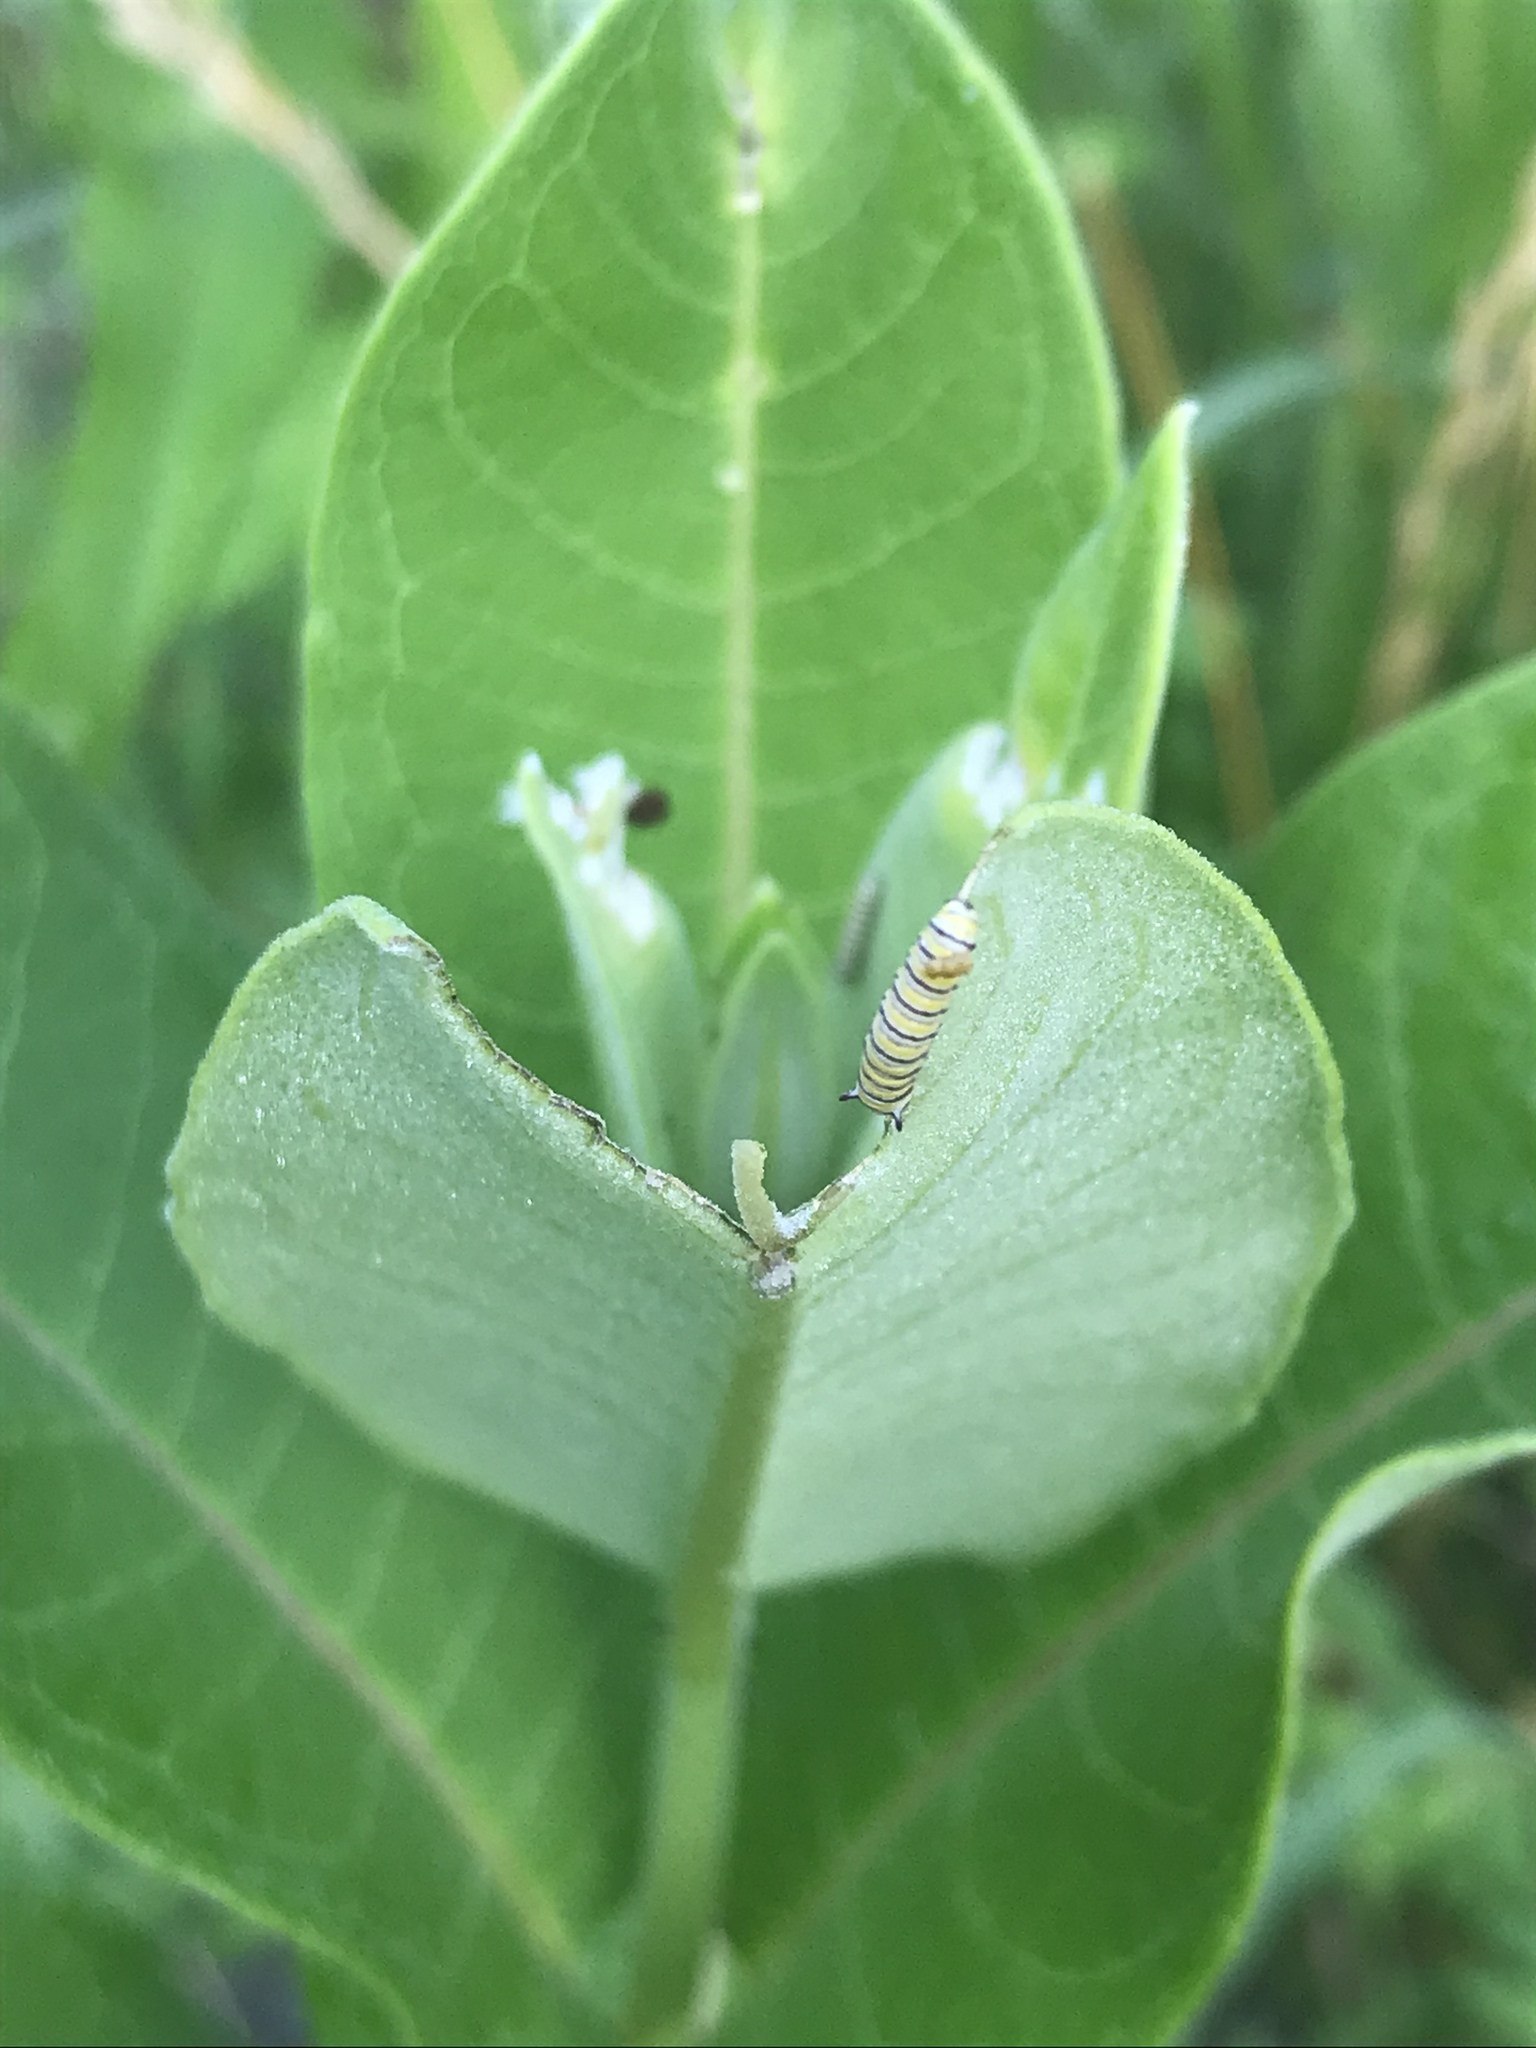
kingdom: Animalia
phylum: Arthropoda
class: Insecta
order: Lepidoptera
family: Nymphalidae
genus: Danaus
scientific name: Danaus plexippus
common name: Monarch
